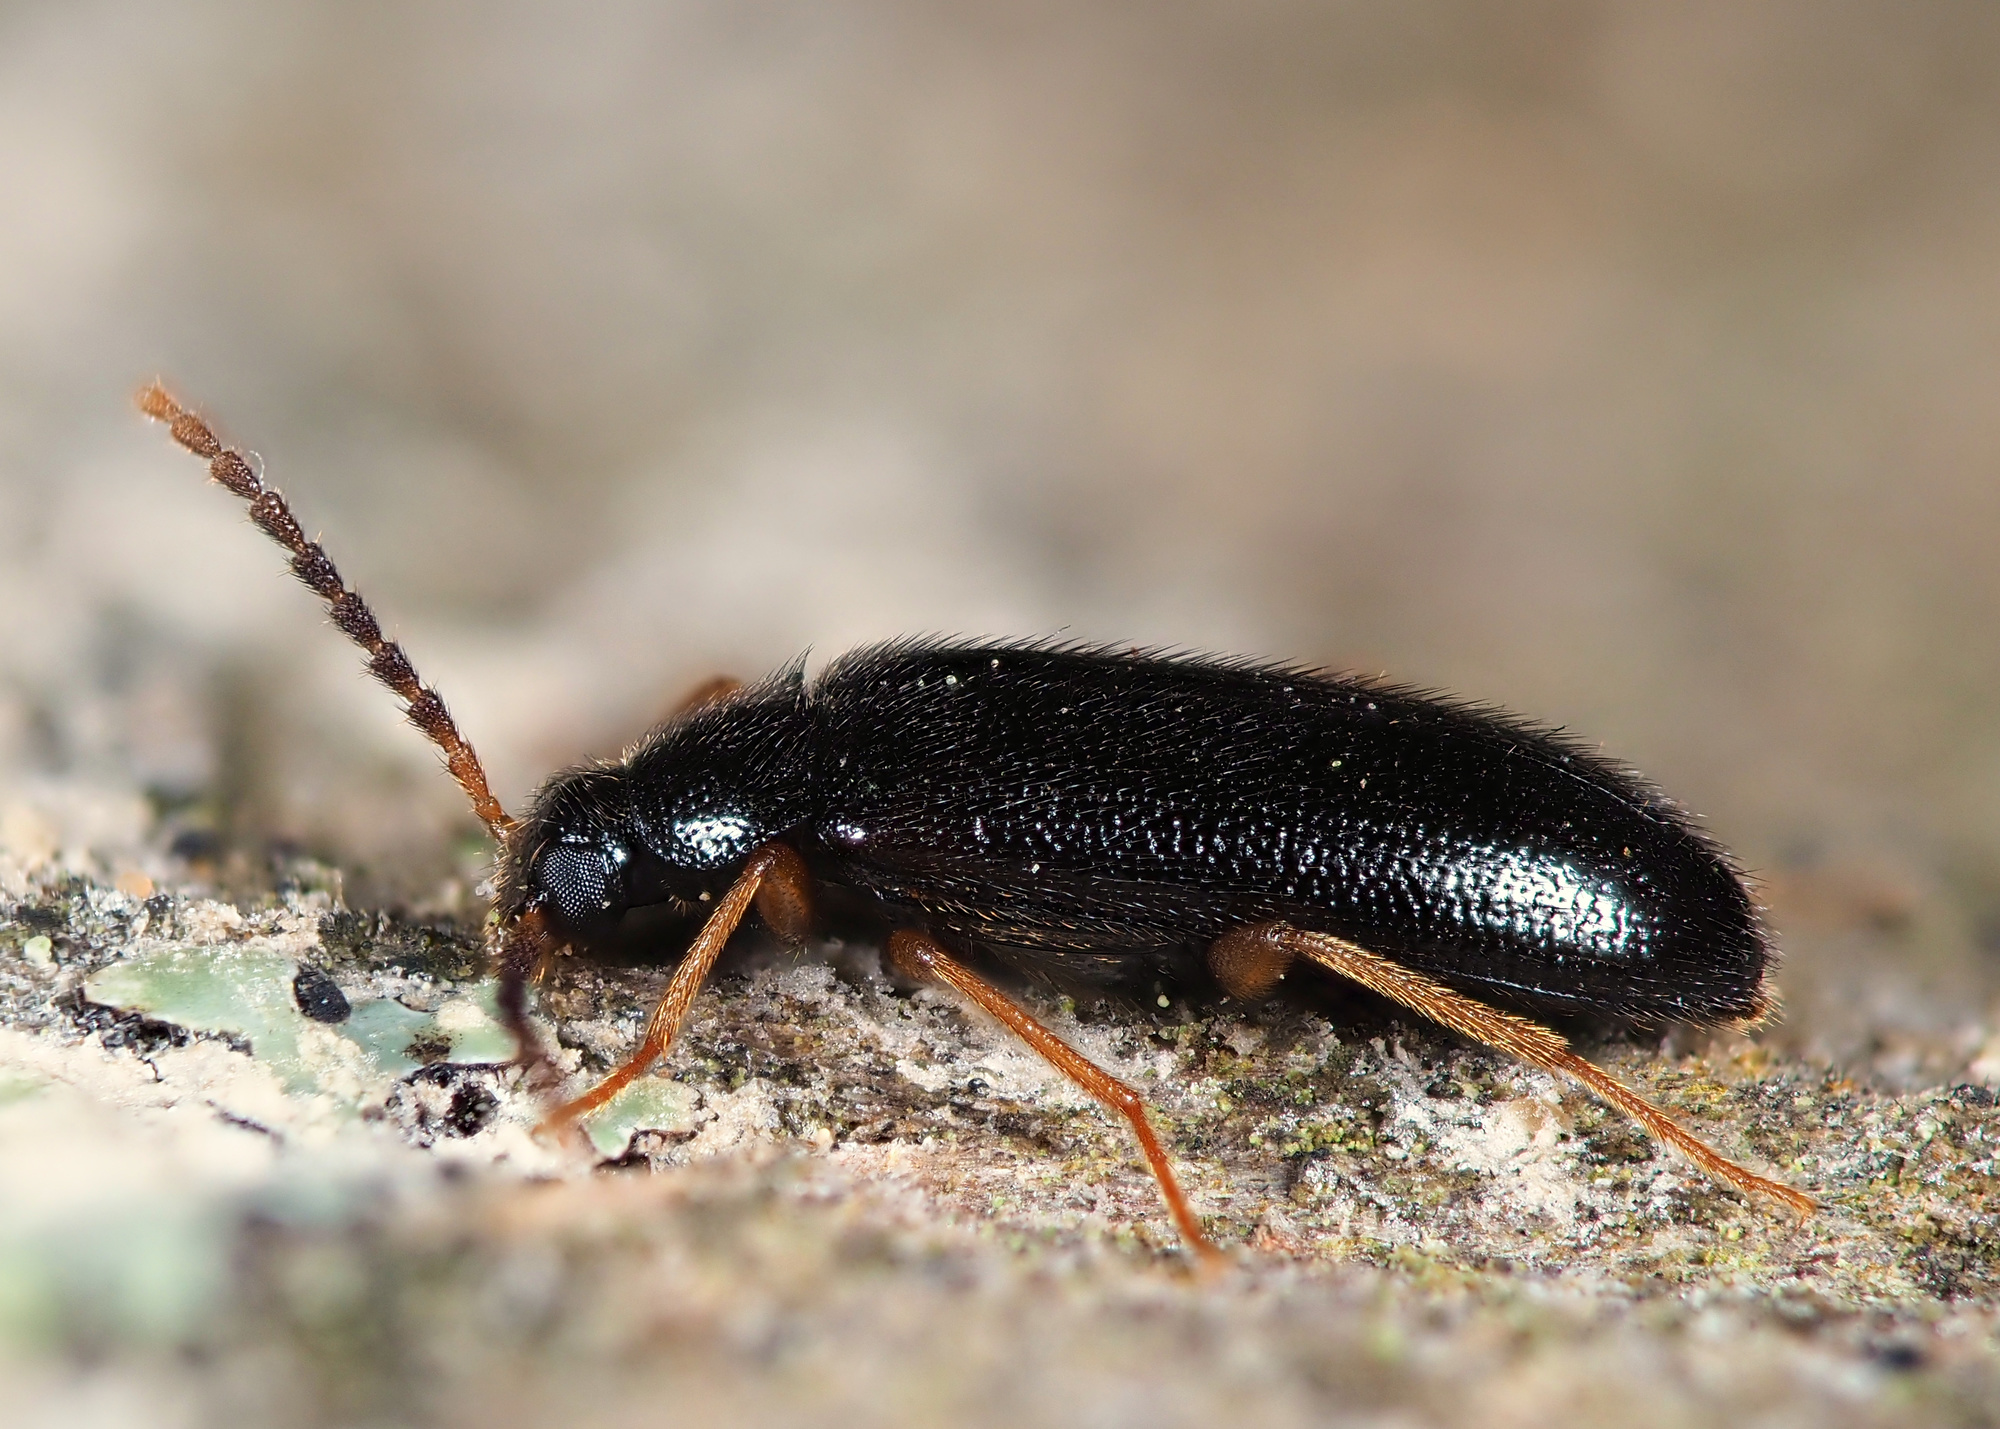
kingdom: Animalia
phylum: Arthropoda
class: Insecta
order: Coleoptera
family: Tenebrionidae
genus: Mycetochara
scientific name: Mycetochara maura
